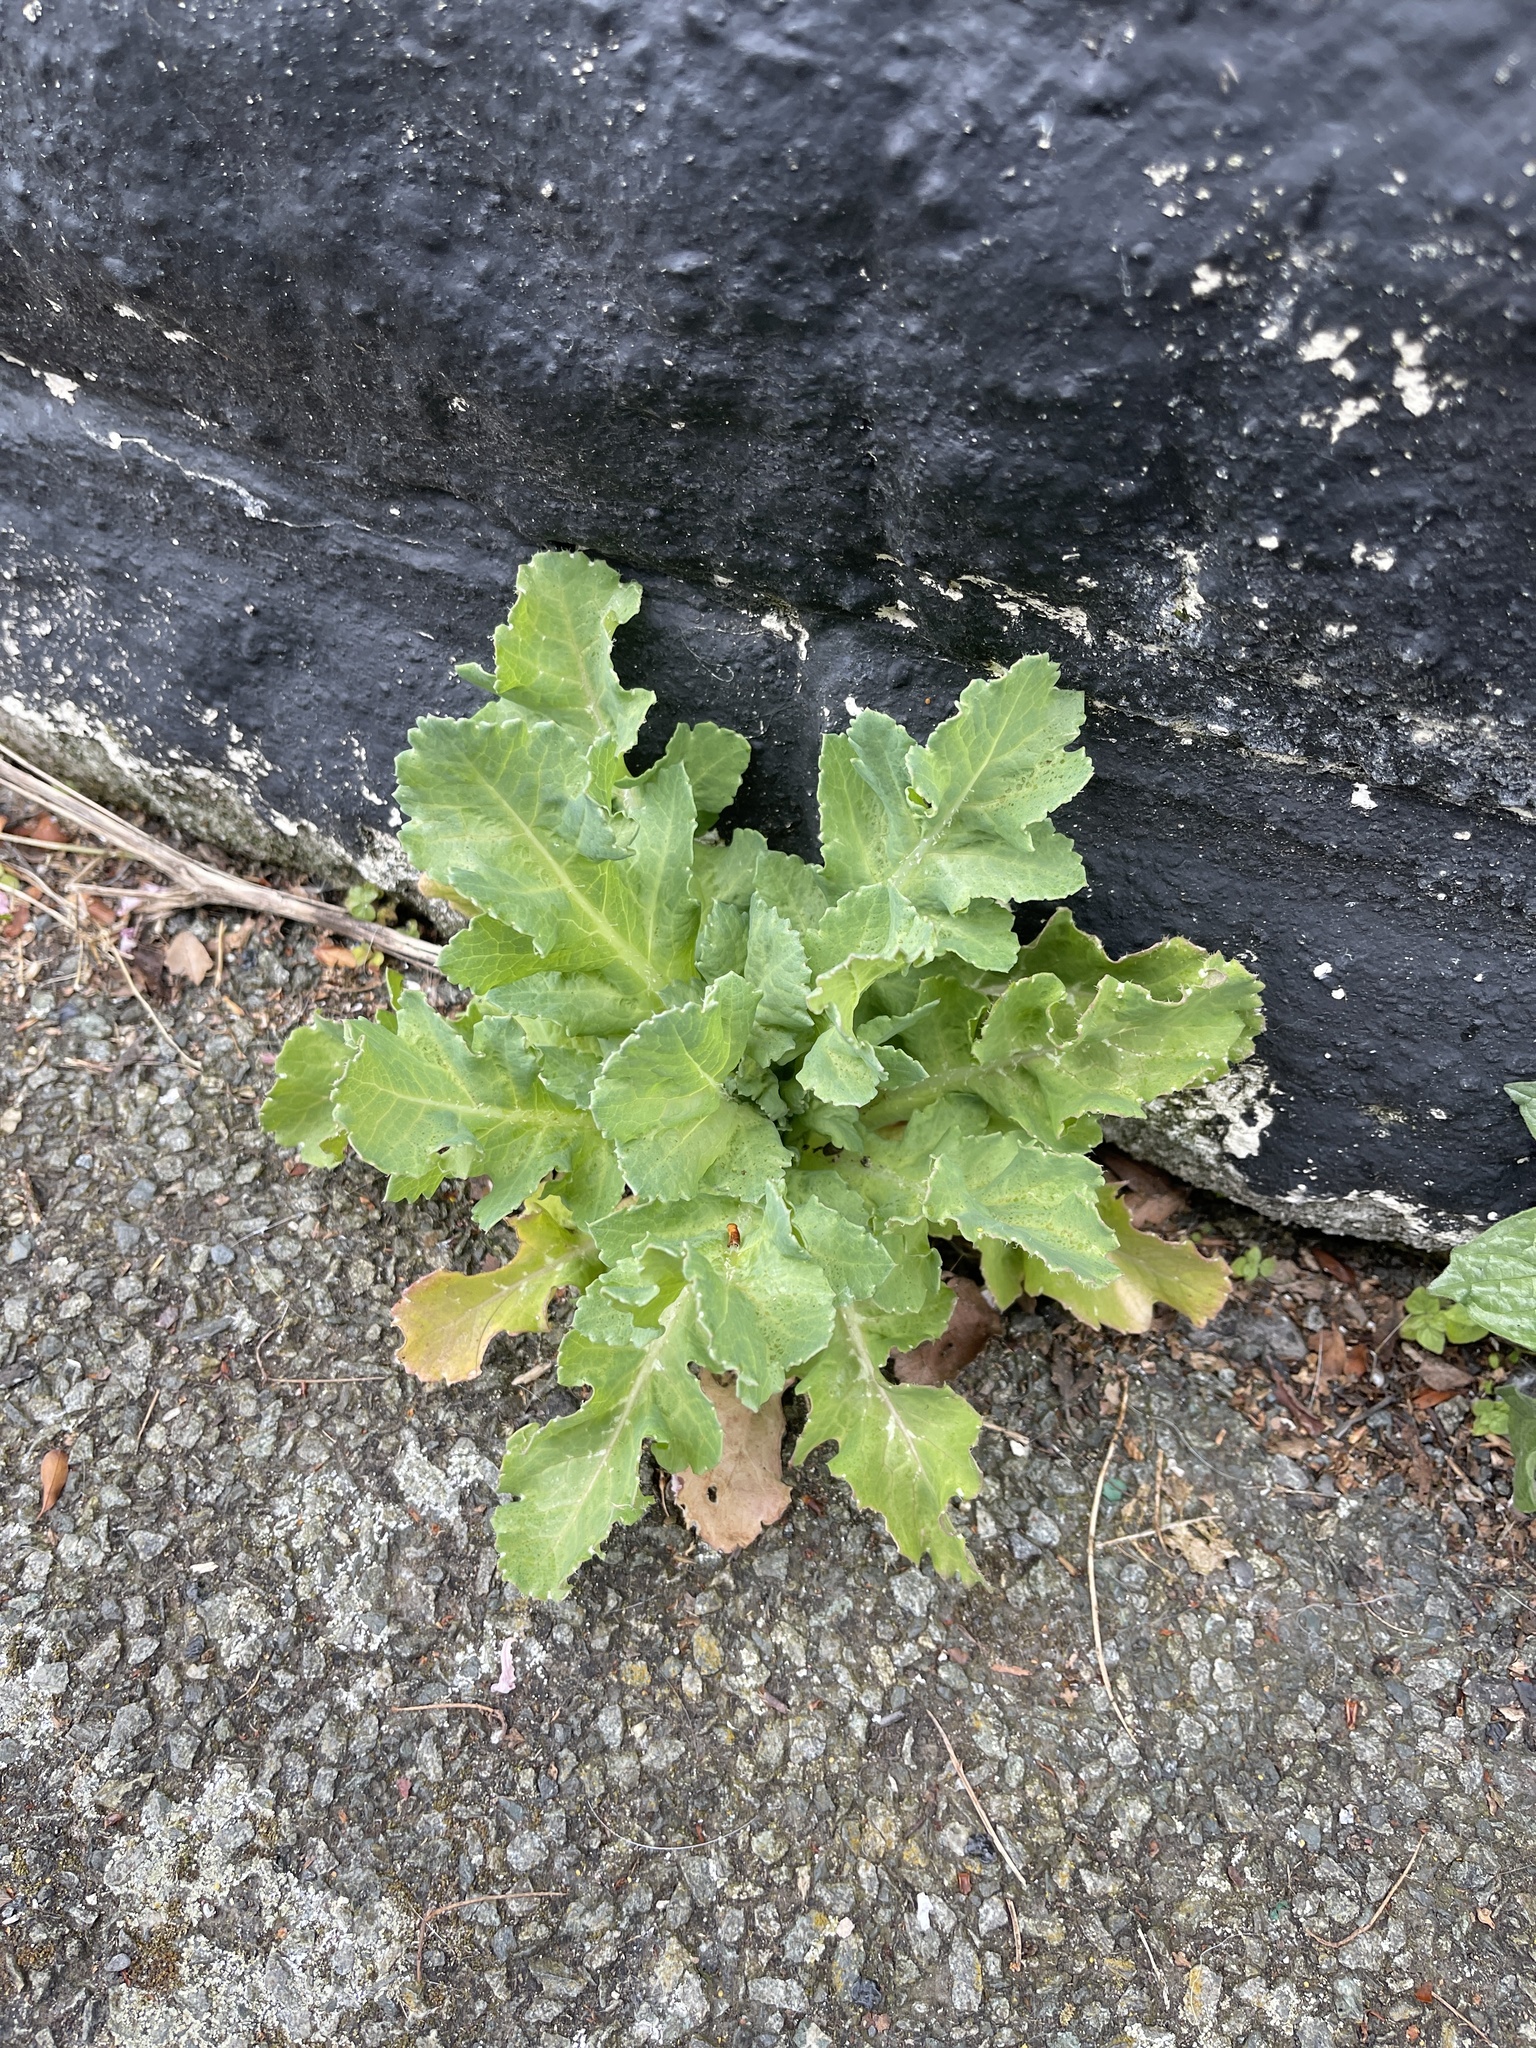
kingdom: Plantae
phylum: Tracheophyta
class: Magnoliopsida
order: Ranunculales
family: Papaveraceae
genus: Papaver
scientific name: Papaver somniferum
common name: Opium poppy
